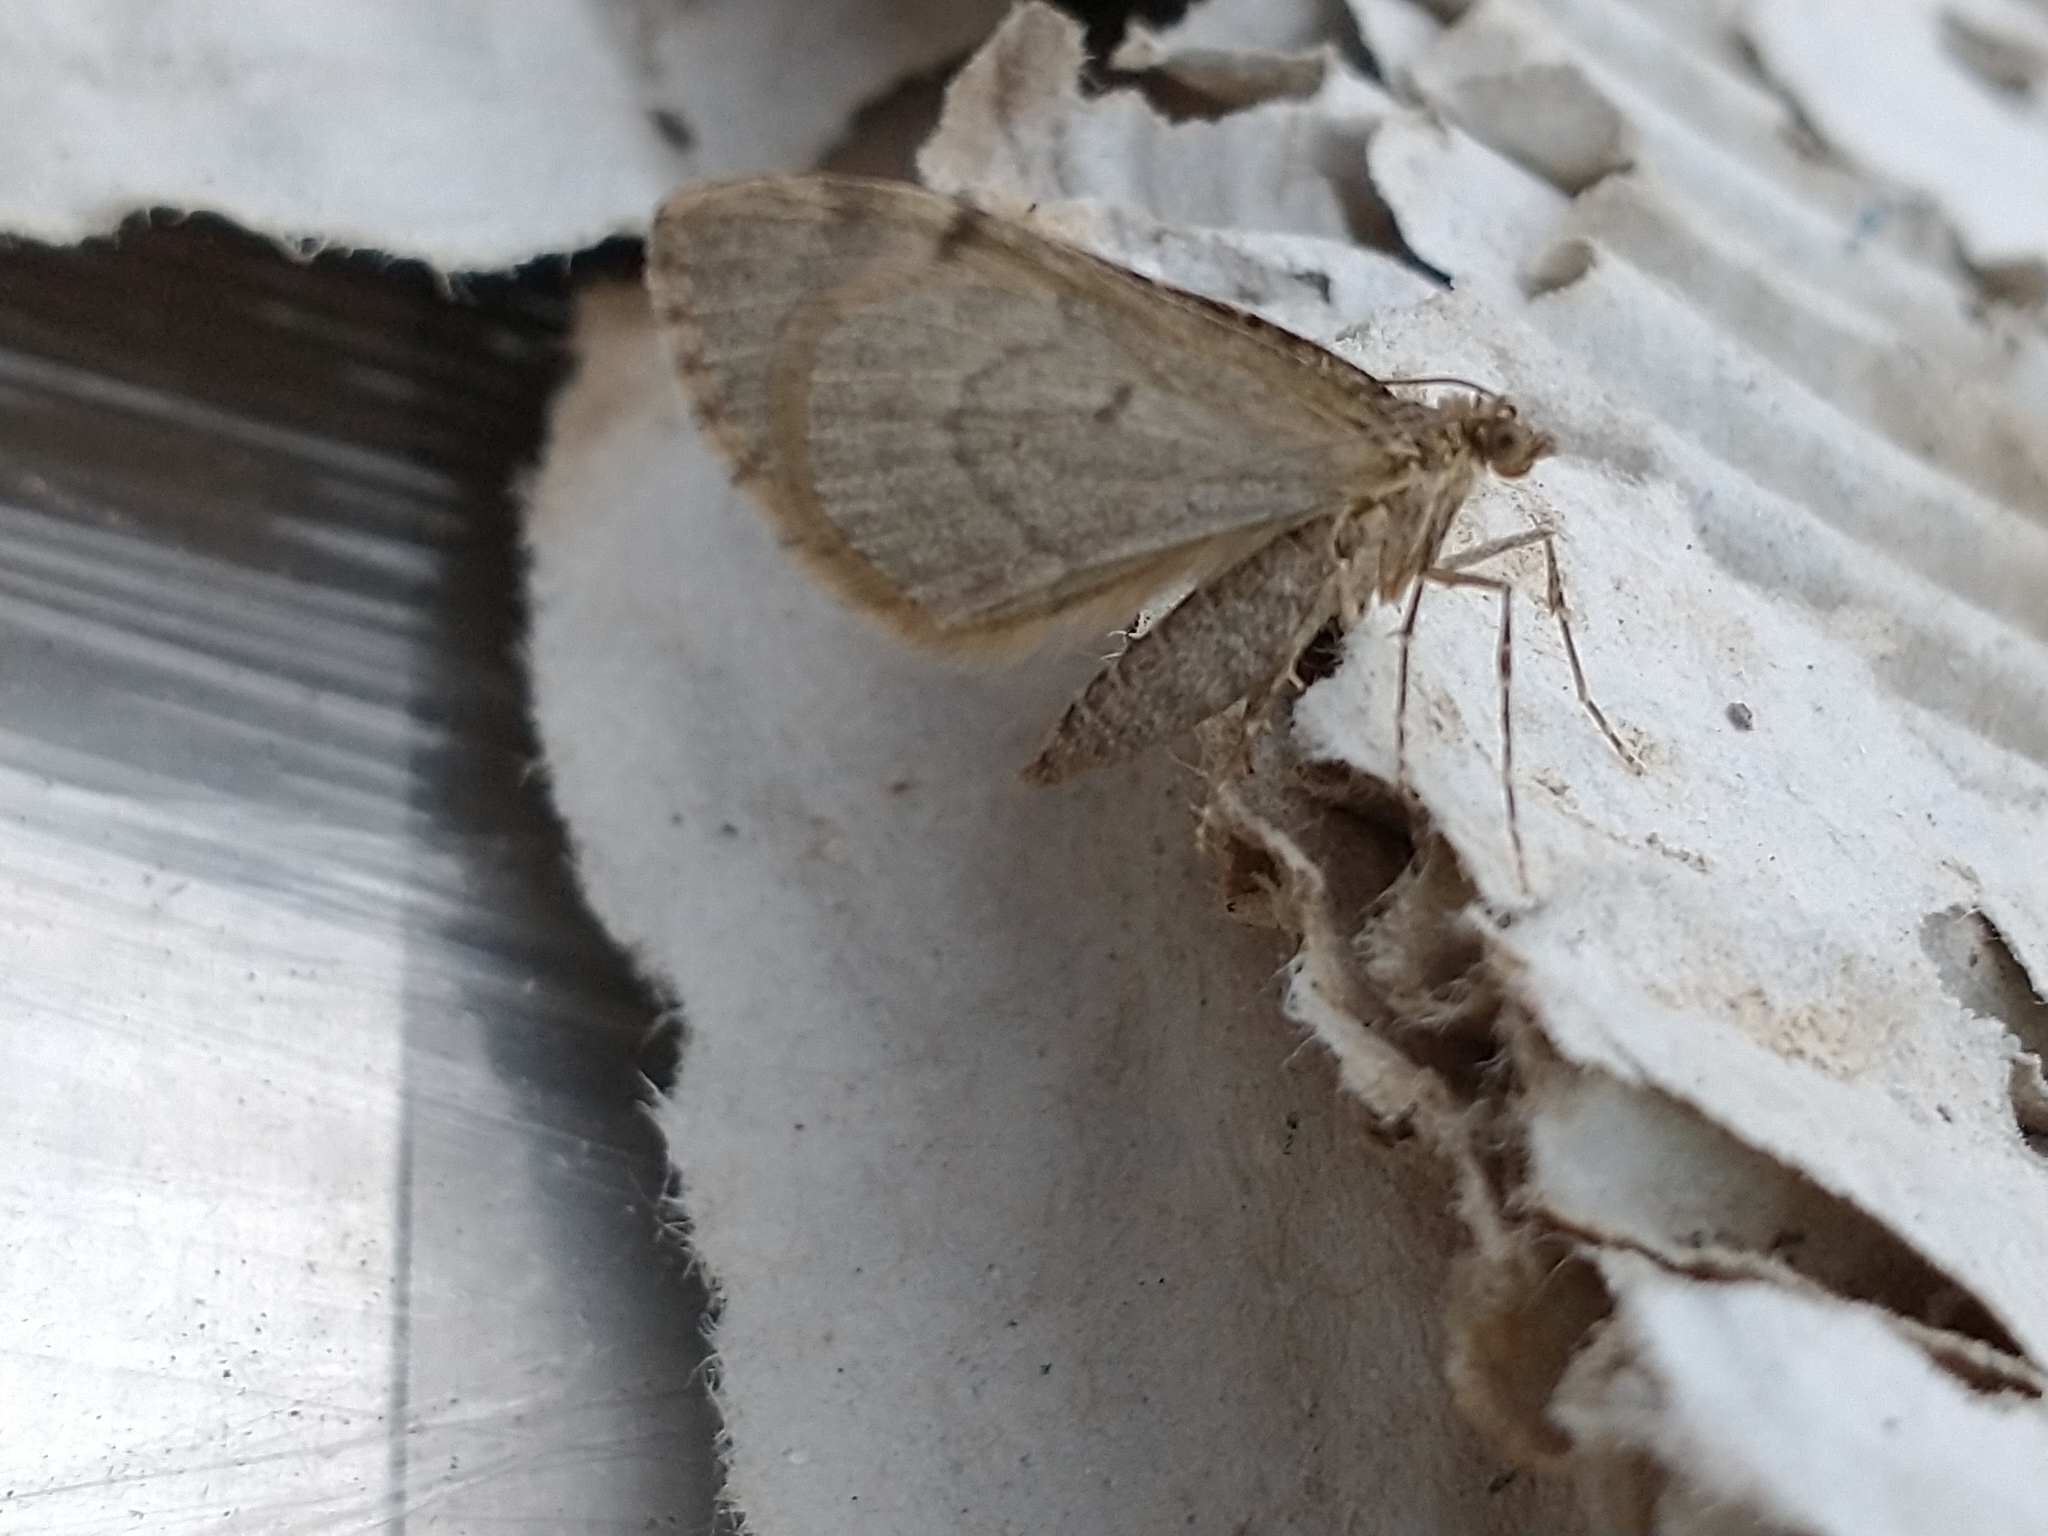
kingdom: Animalia
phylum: Arthropoda
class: Insecta
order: Lepidoptera
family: Geometridae
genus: Thera
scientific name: Thera britannica
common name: Spruce carpet
